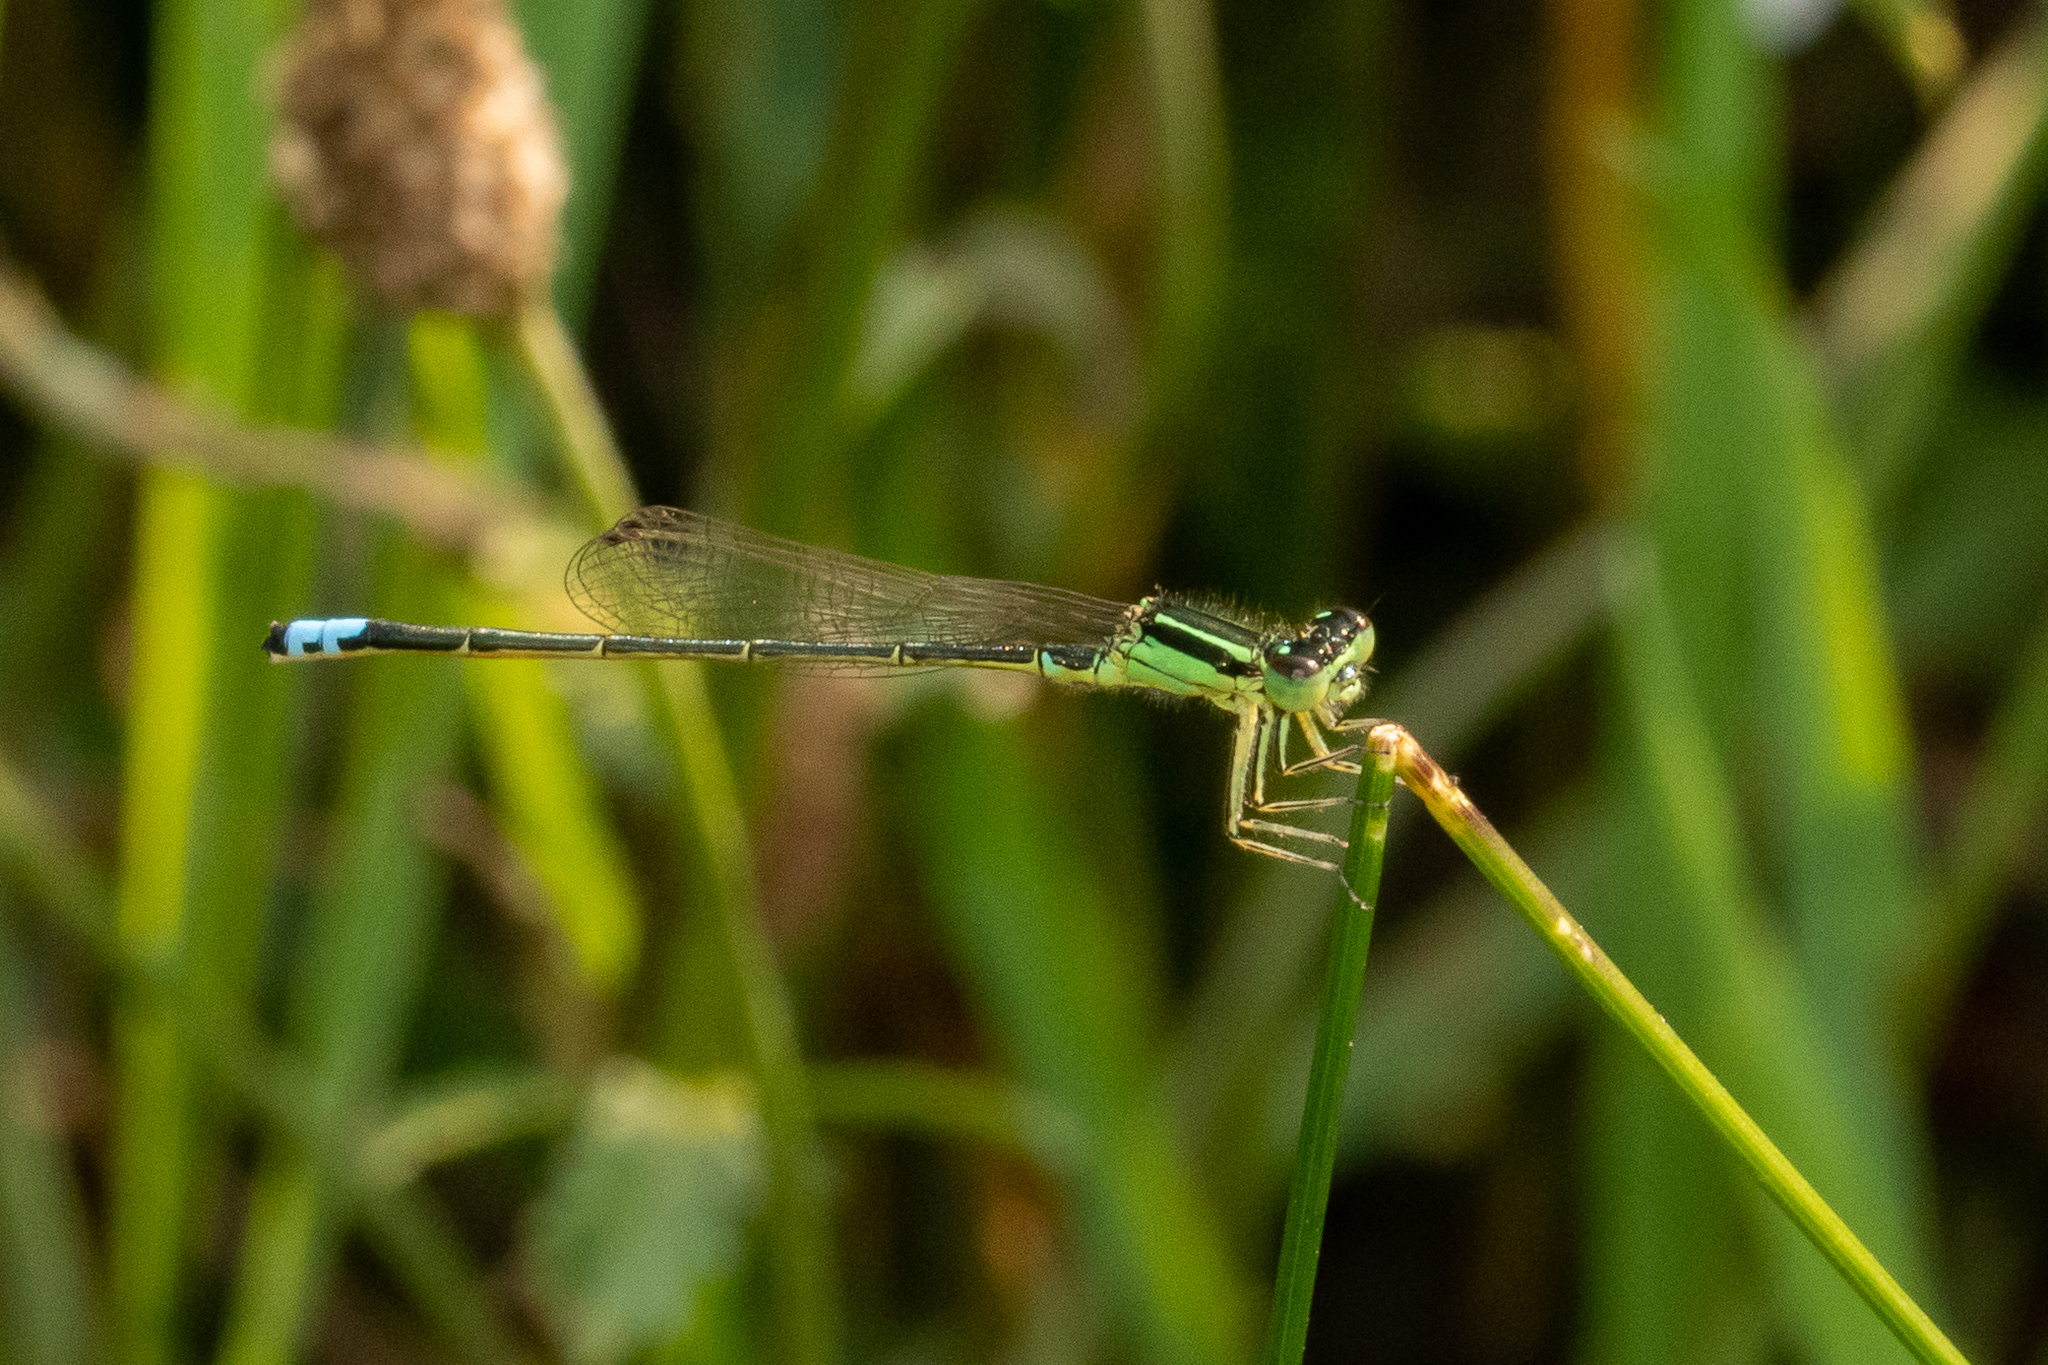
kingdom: Animalia
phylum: Arthropoda
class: Insecta
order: Odonata
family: Coenagrionidae
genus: Ischnura
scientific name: Ischnura verticalis
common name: Eastern forktail
